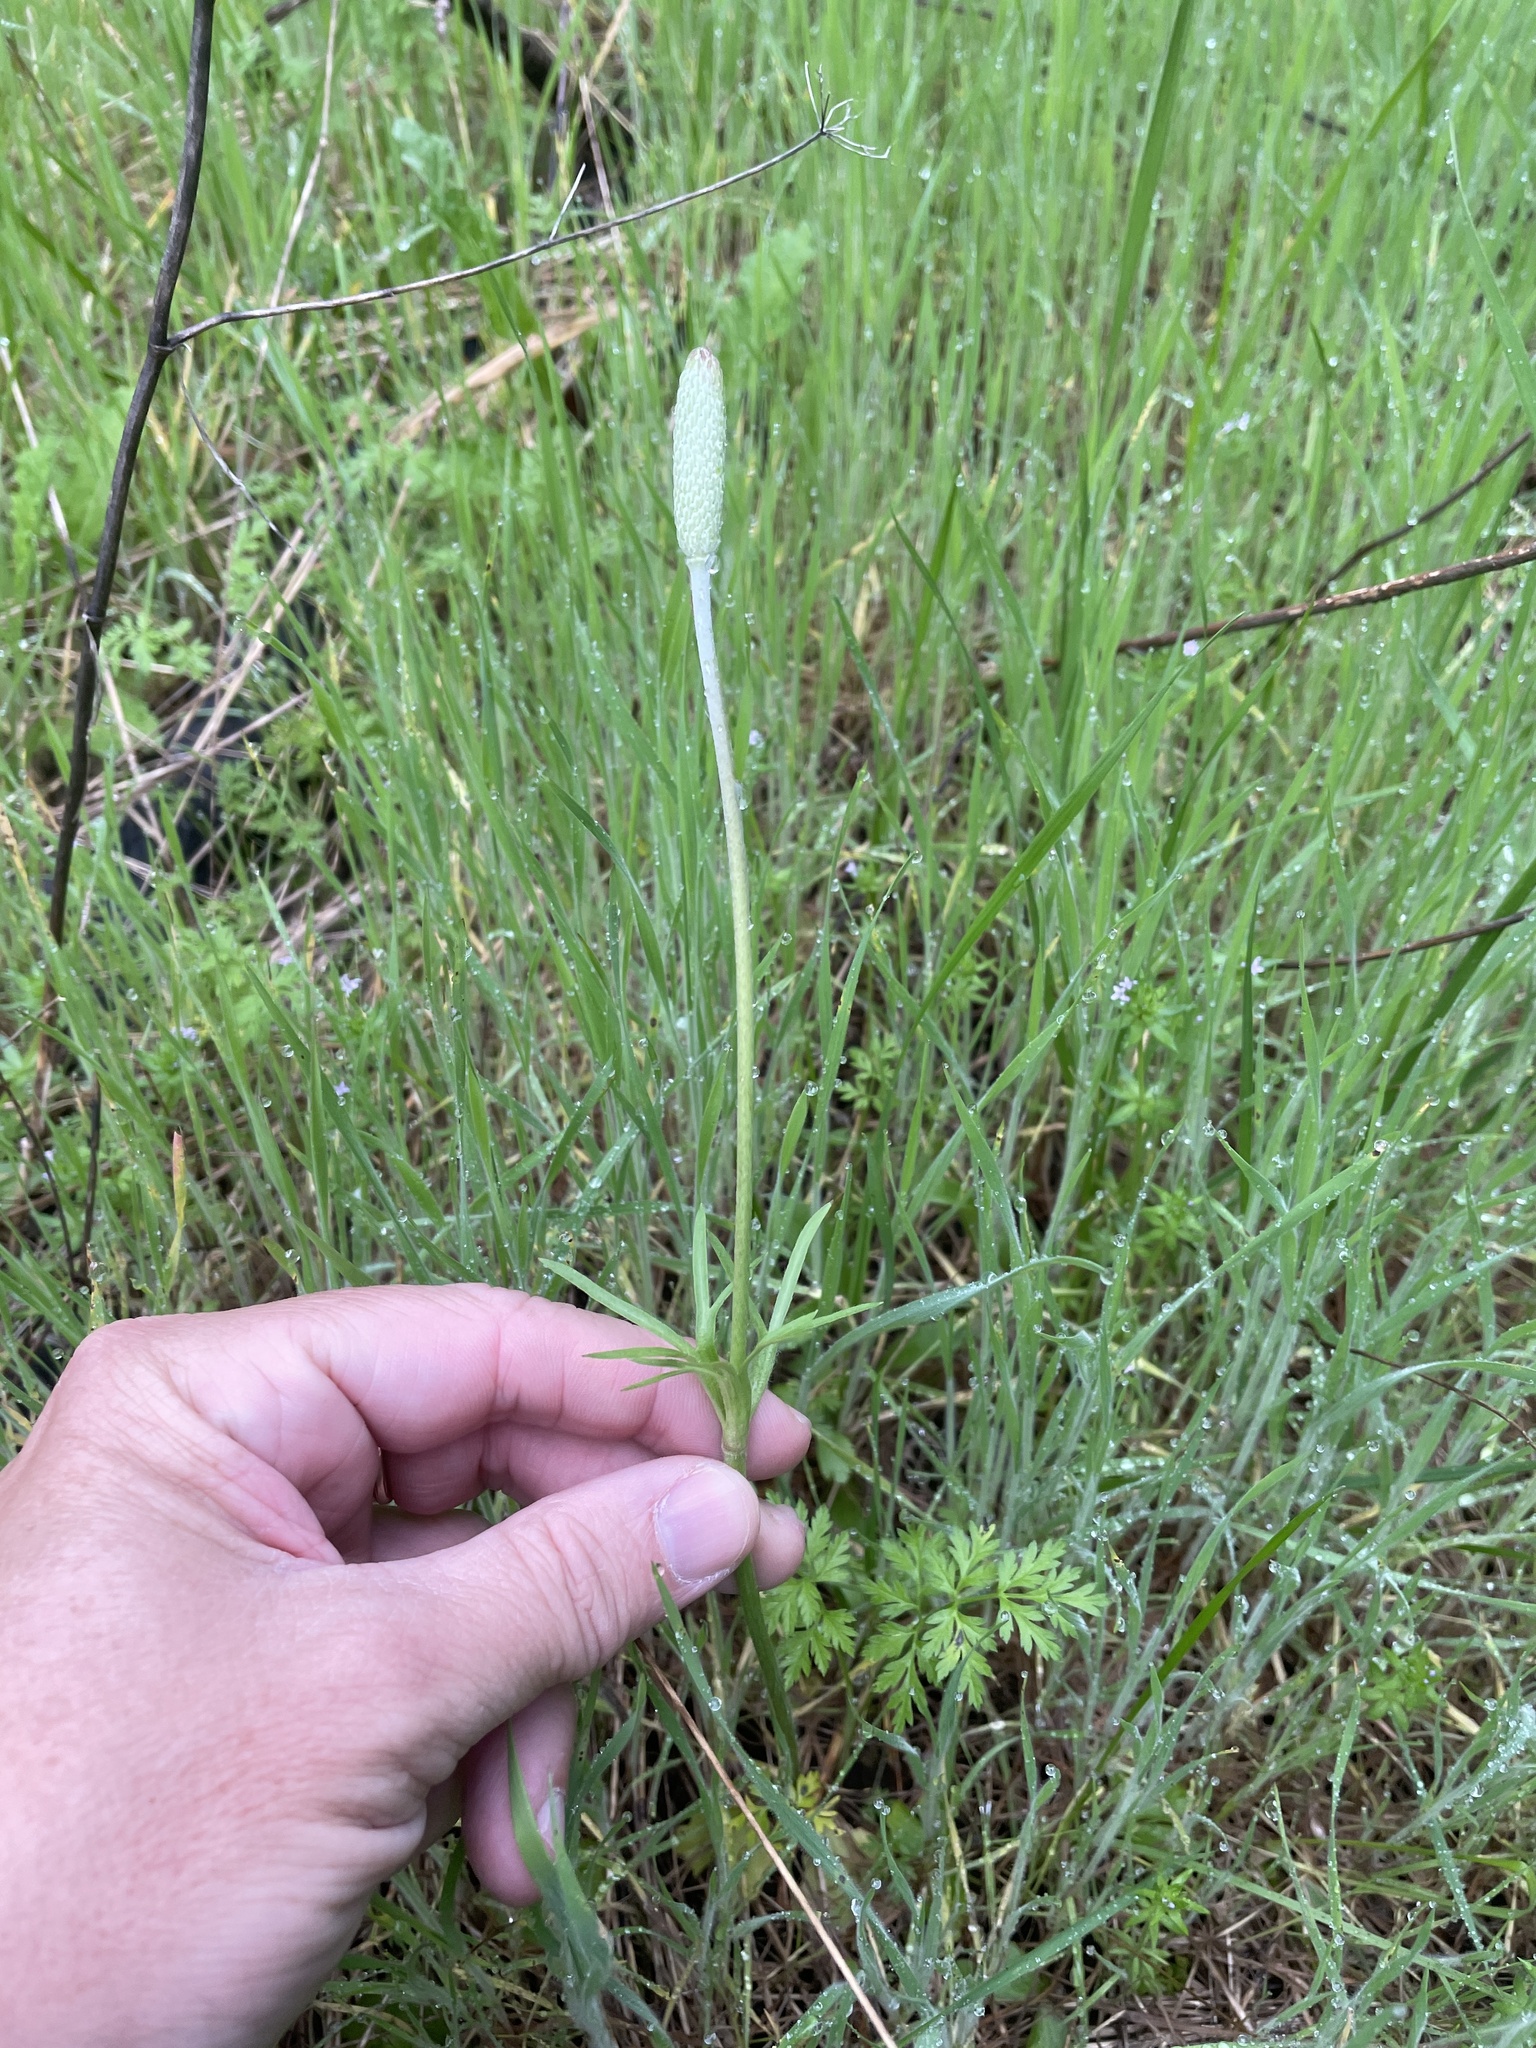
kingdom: Plantae
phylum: Tracheophyta
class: Magnoliopsida
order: Ranunculales
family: Ranunculaceae
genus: Anemone
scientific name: Anemone berlandieri
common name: Ten-petal anemone
